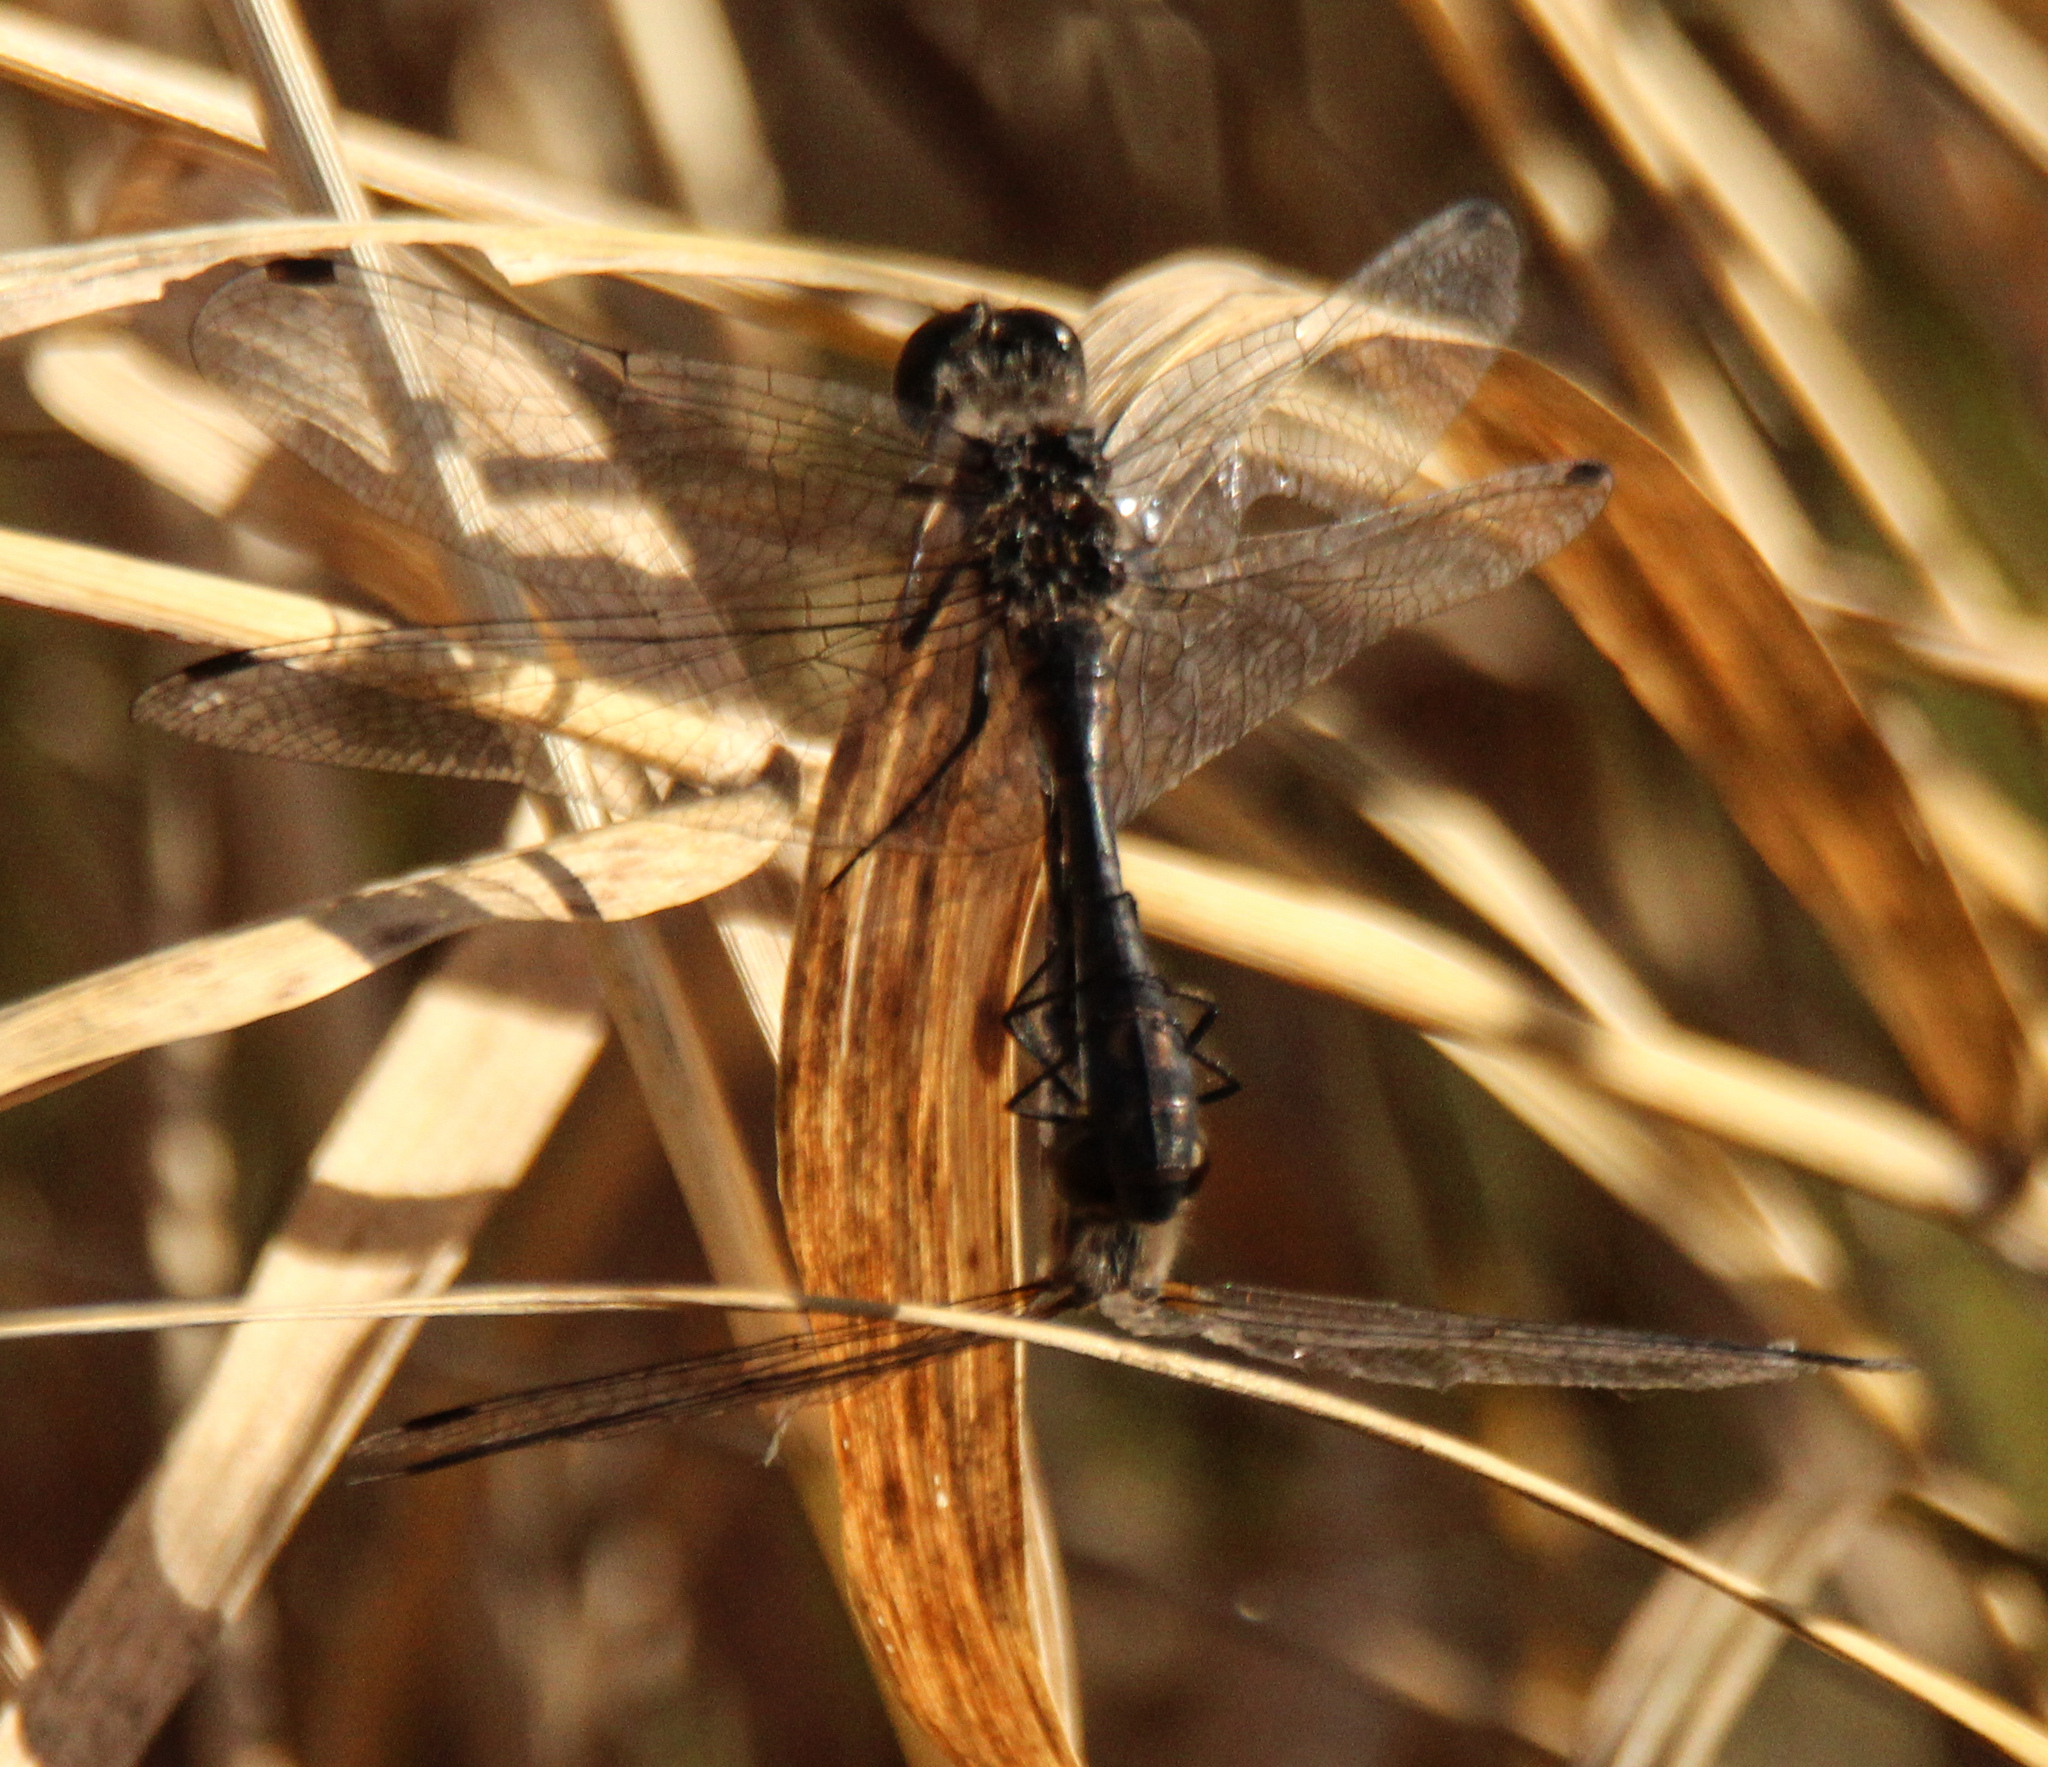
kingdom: Animalia
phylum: Arthropoda
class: Insecta
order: Odonata
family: Libellulidae
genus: Sympetrum
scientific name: Sympetrum danae
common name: Black darter
